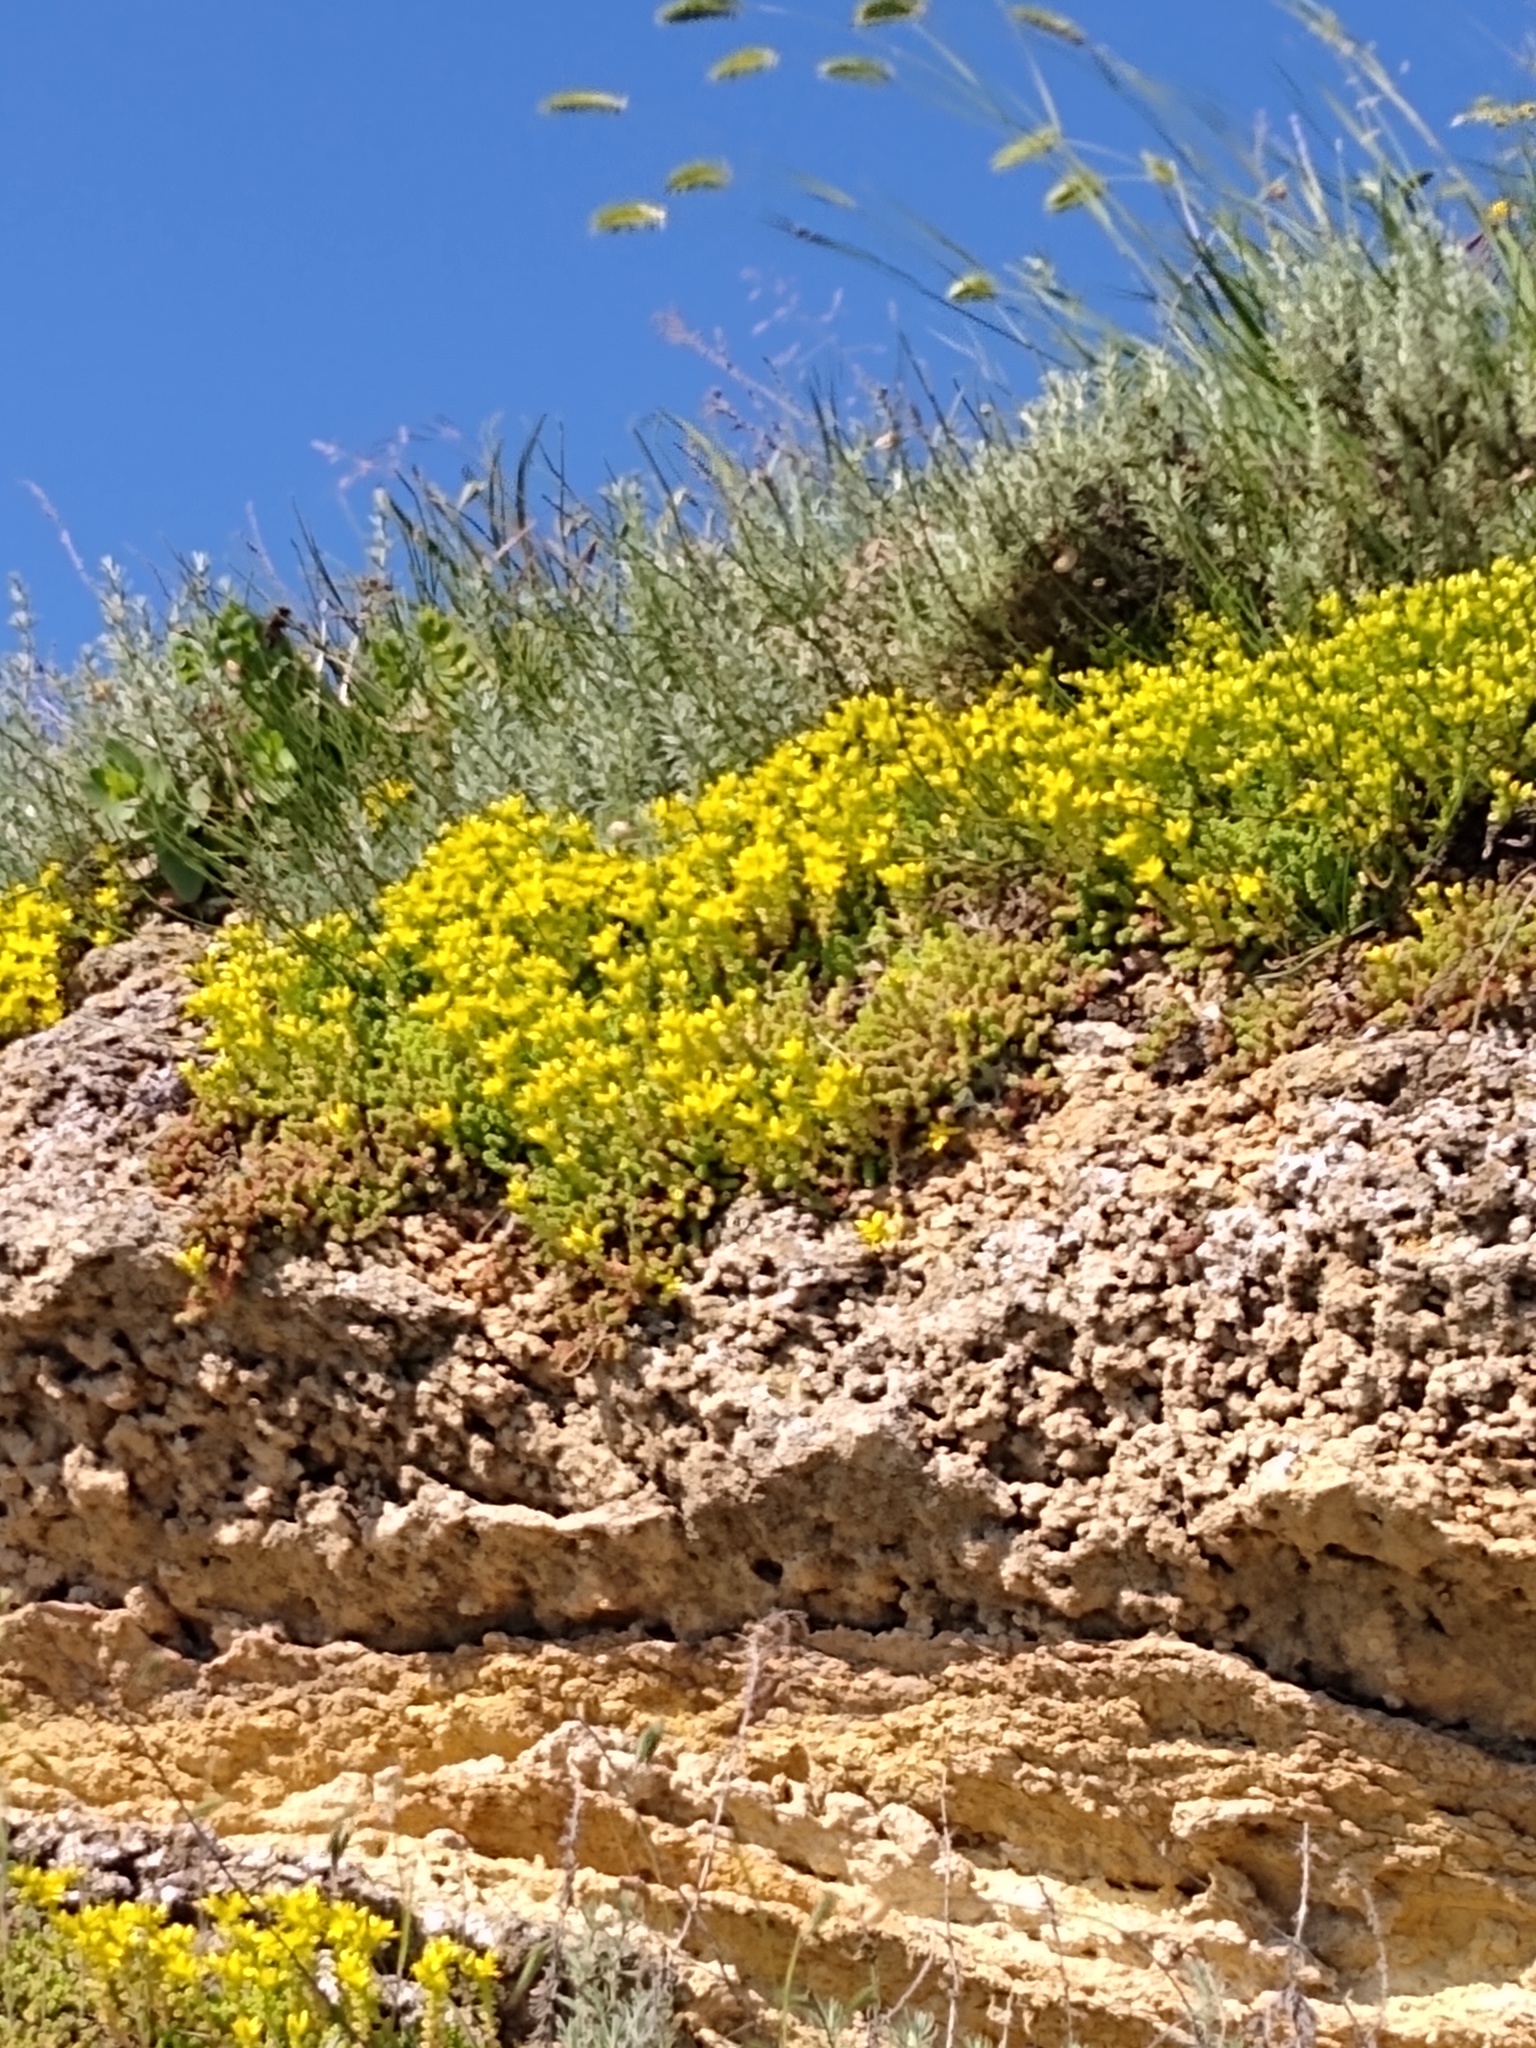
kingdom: Plantae
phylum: Tracheophyta
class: Magnoliopsida
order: Saxifragales
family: Crassulaceae
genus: Sedum
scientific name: Sedum
